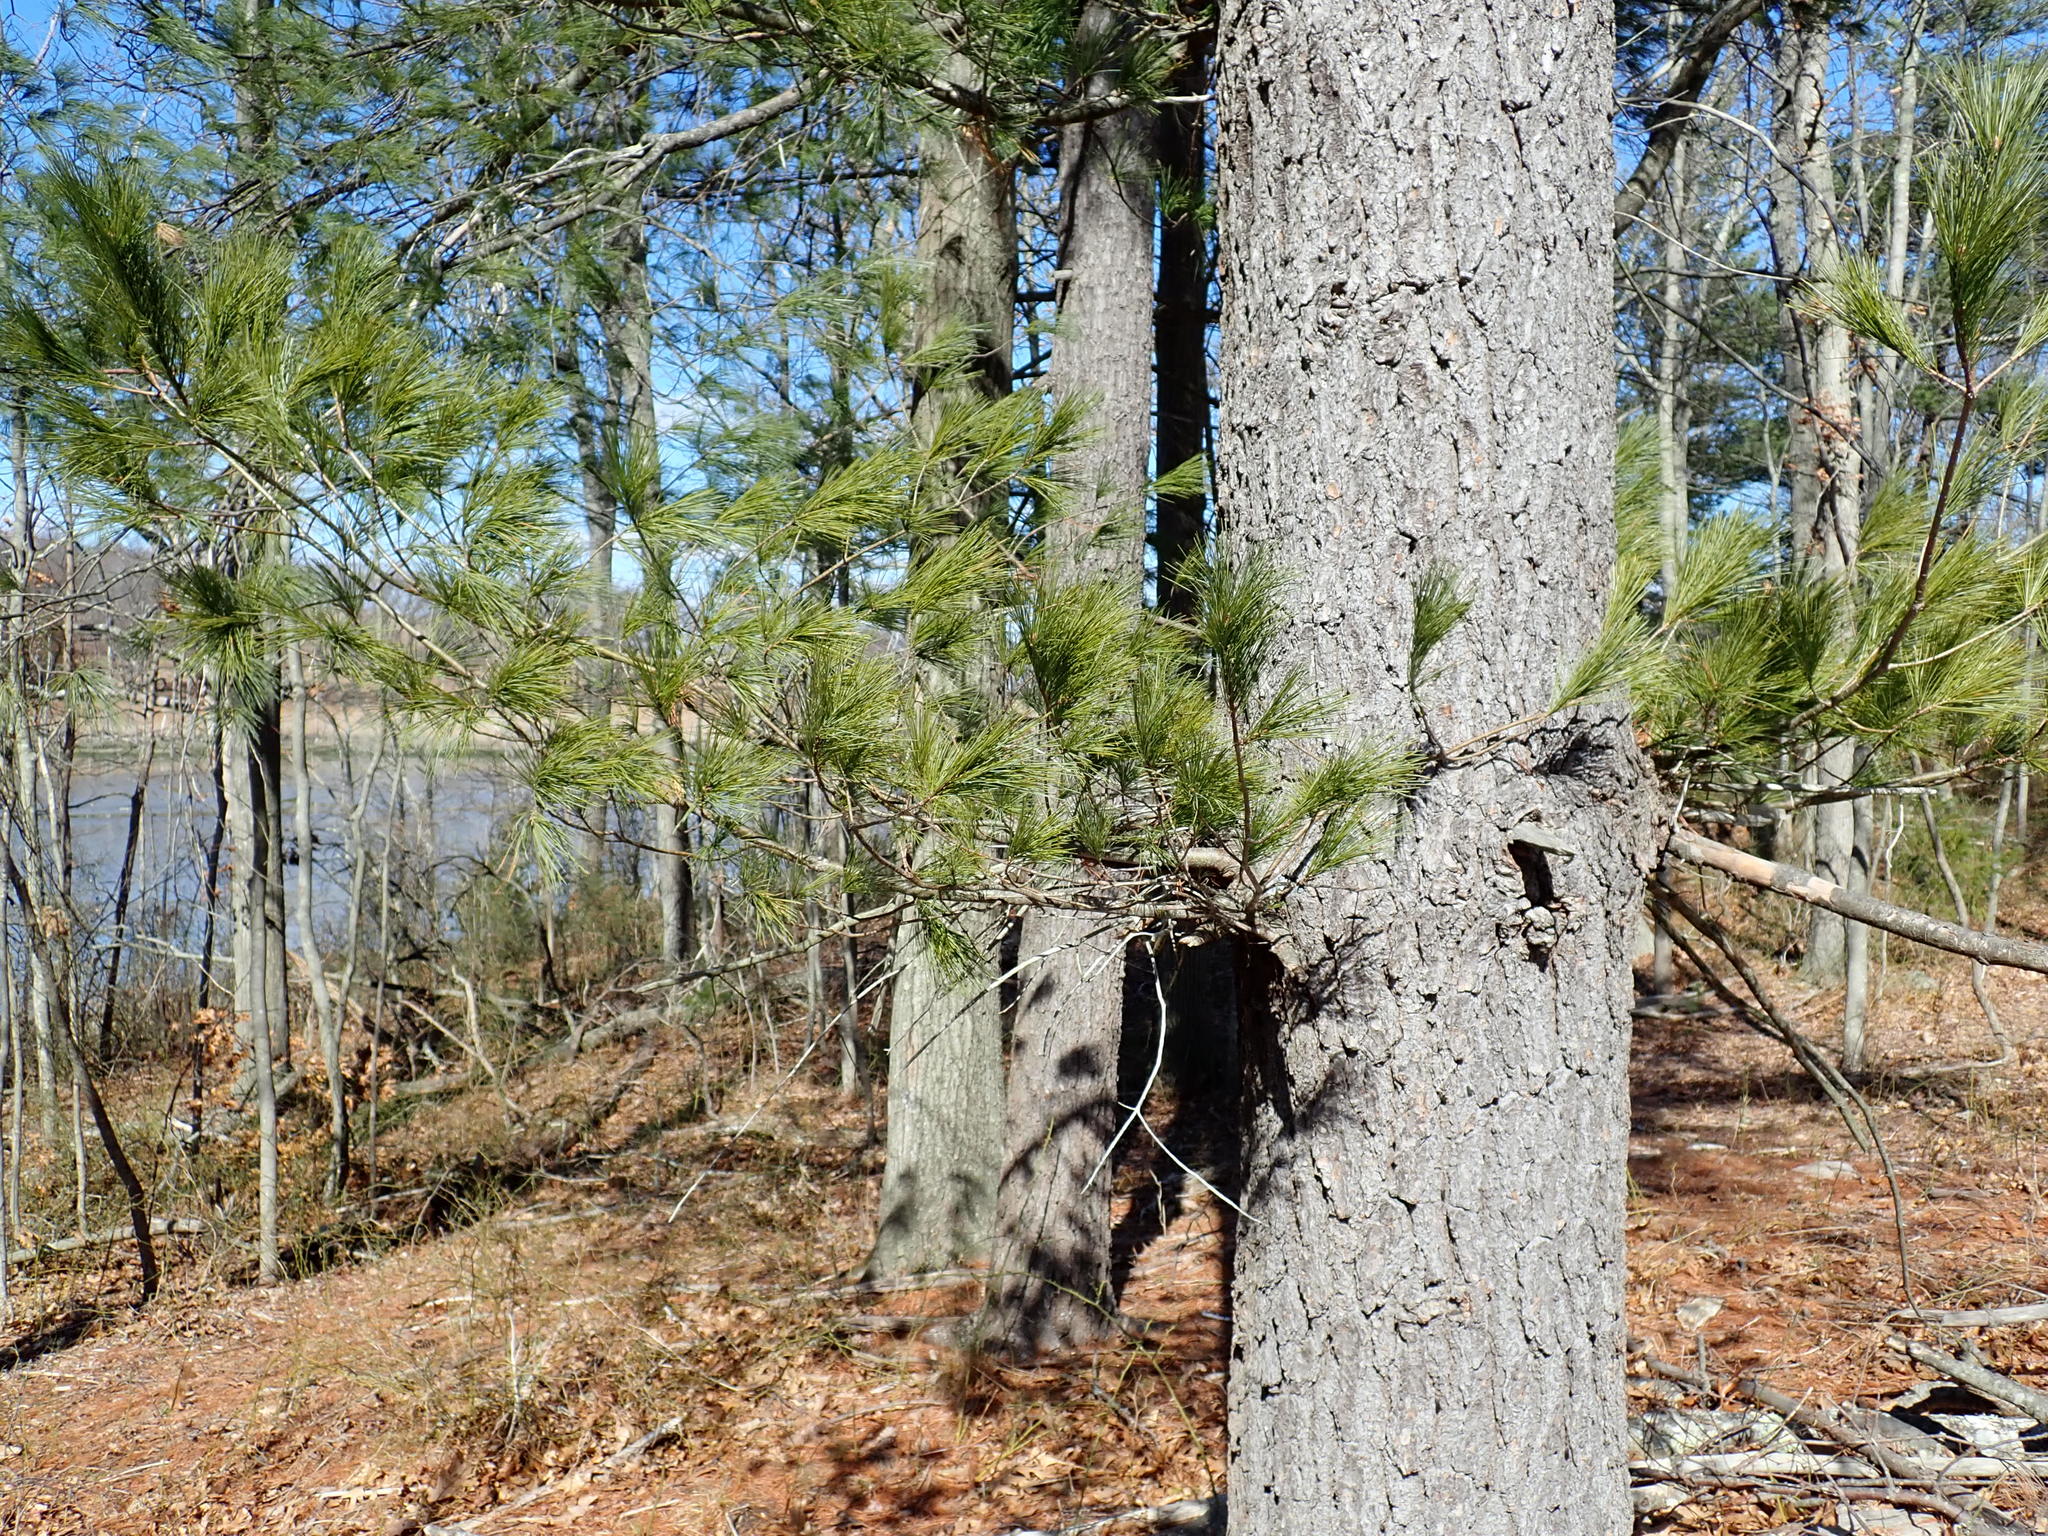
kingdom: Plantae
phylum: Tracheophyta
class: Pinopsida
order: Pinales
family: Pinaceae
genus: Pinus
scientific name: Pinus strobus
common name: Weymouth pine
